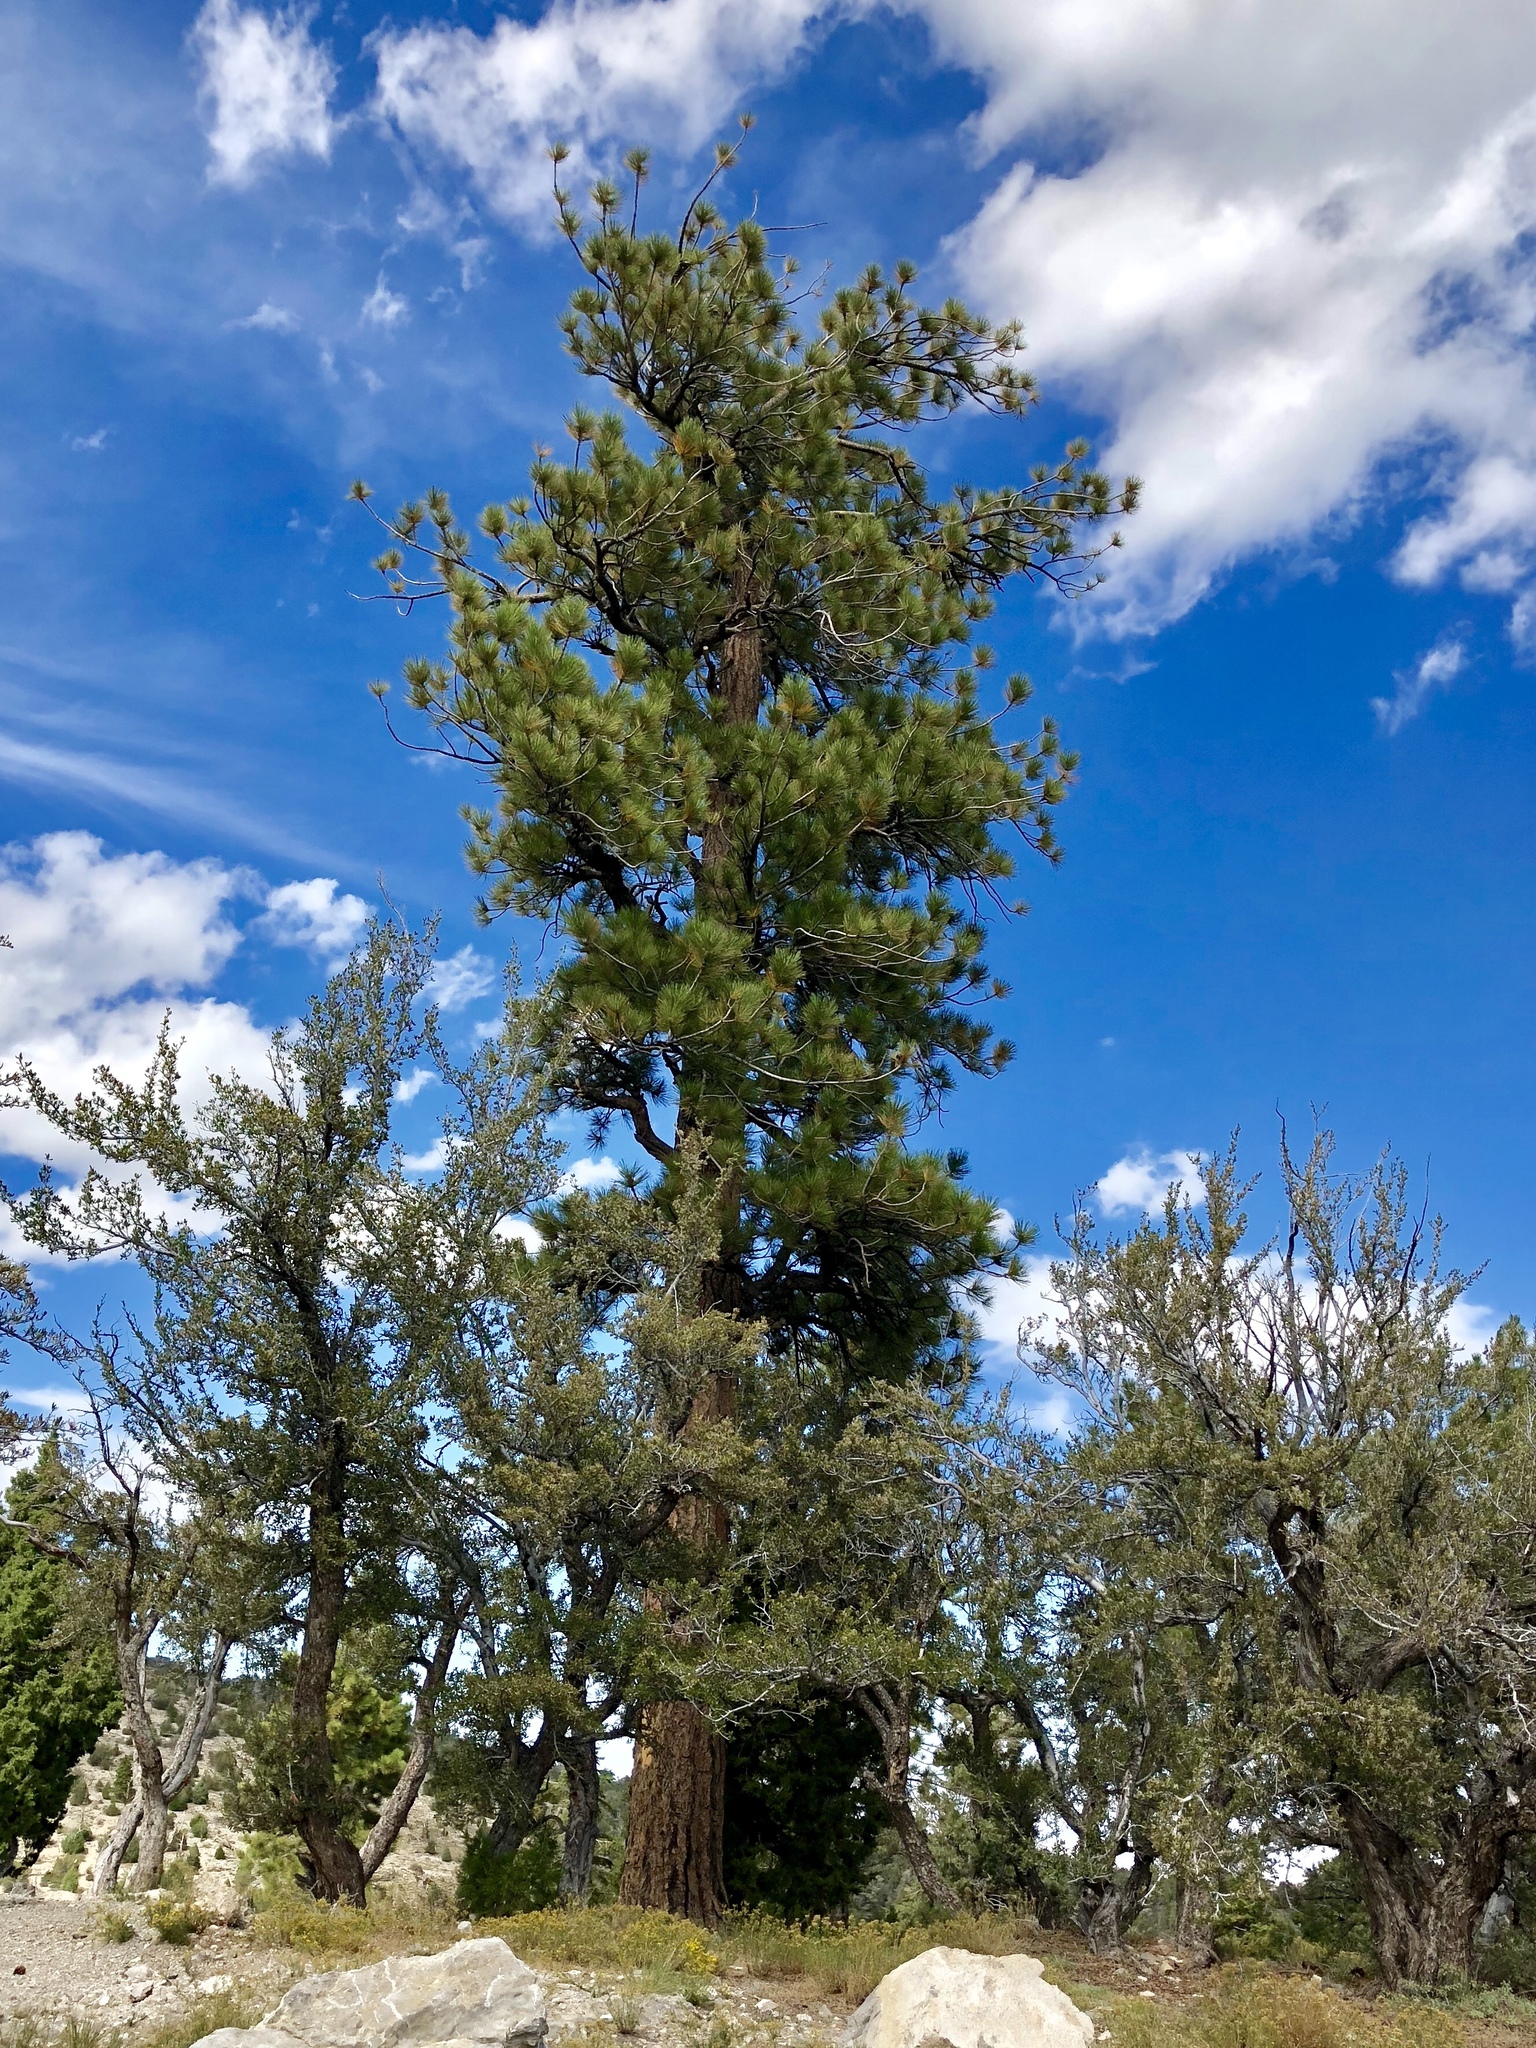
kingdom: Plantae
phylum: Tracheophyta
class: Pinopsida
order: Pinales
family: Pinaceae
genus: Pinus
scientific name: Pinus ponderosa
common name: Western yellow-pine
